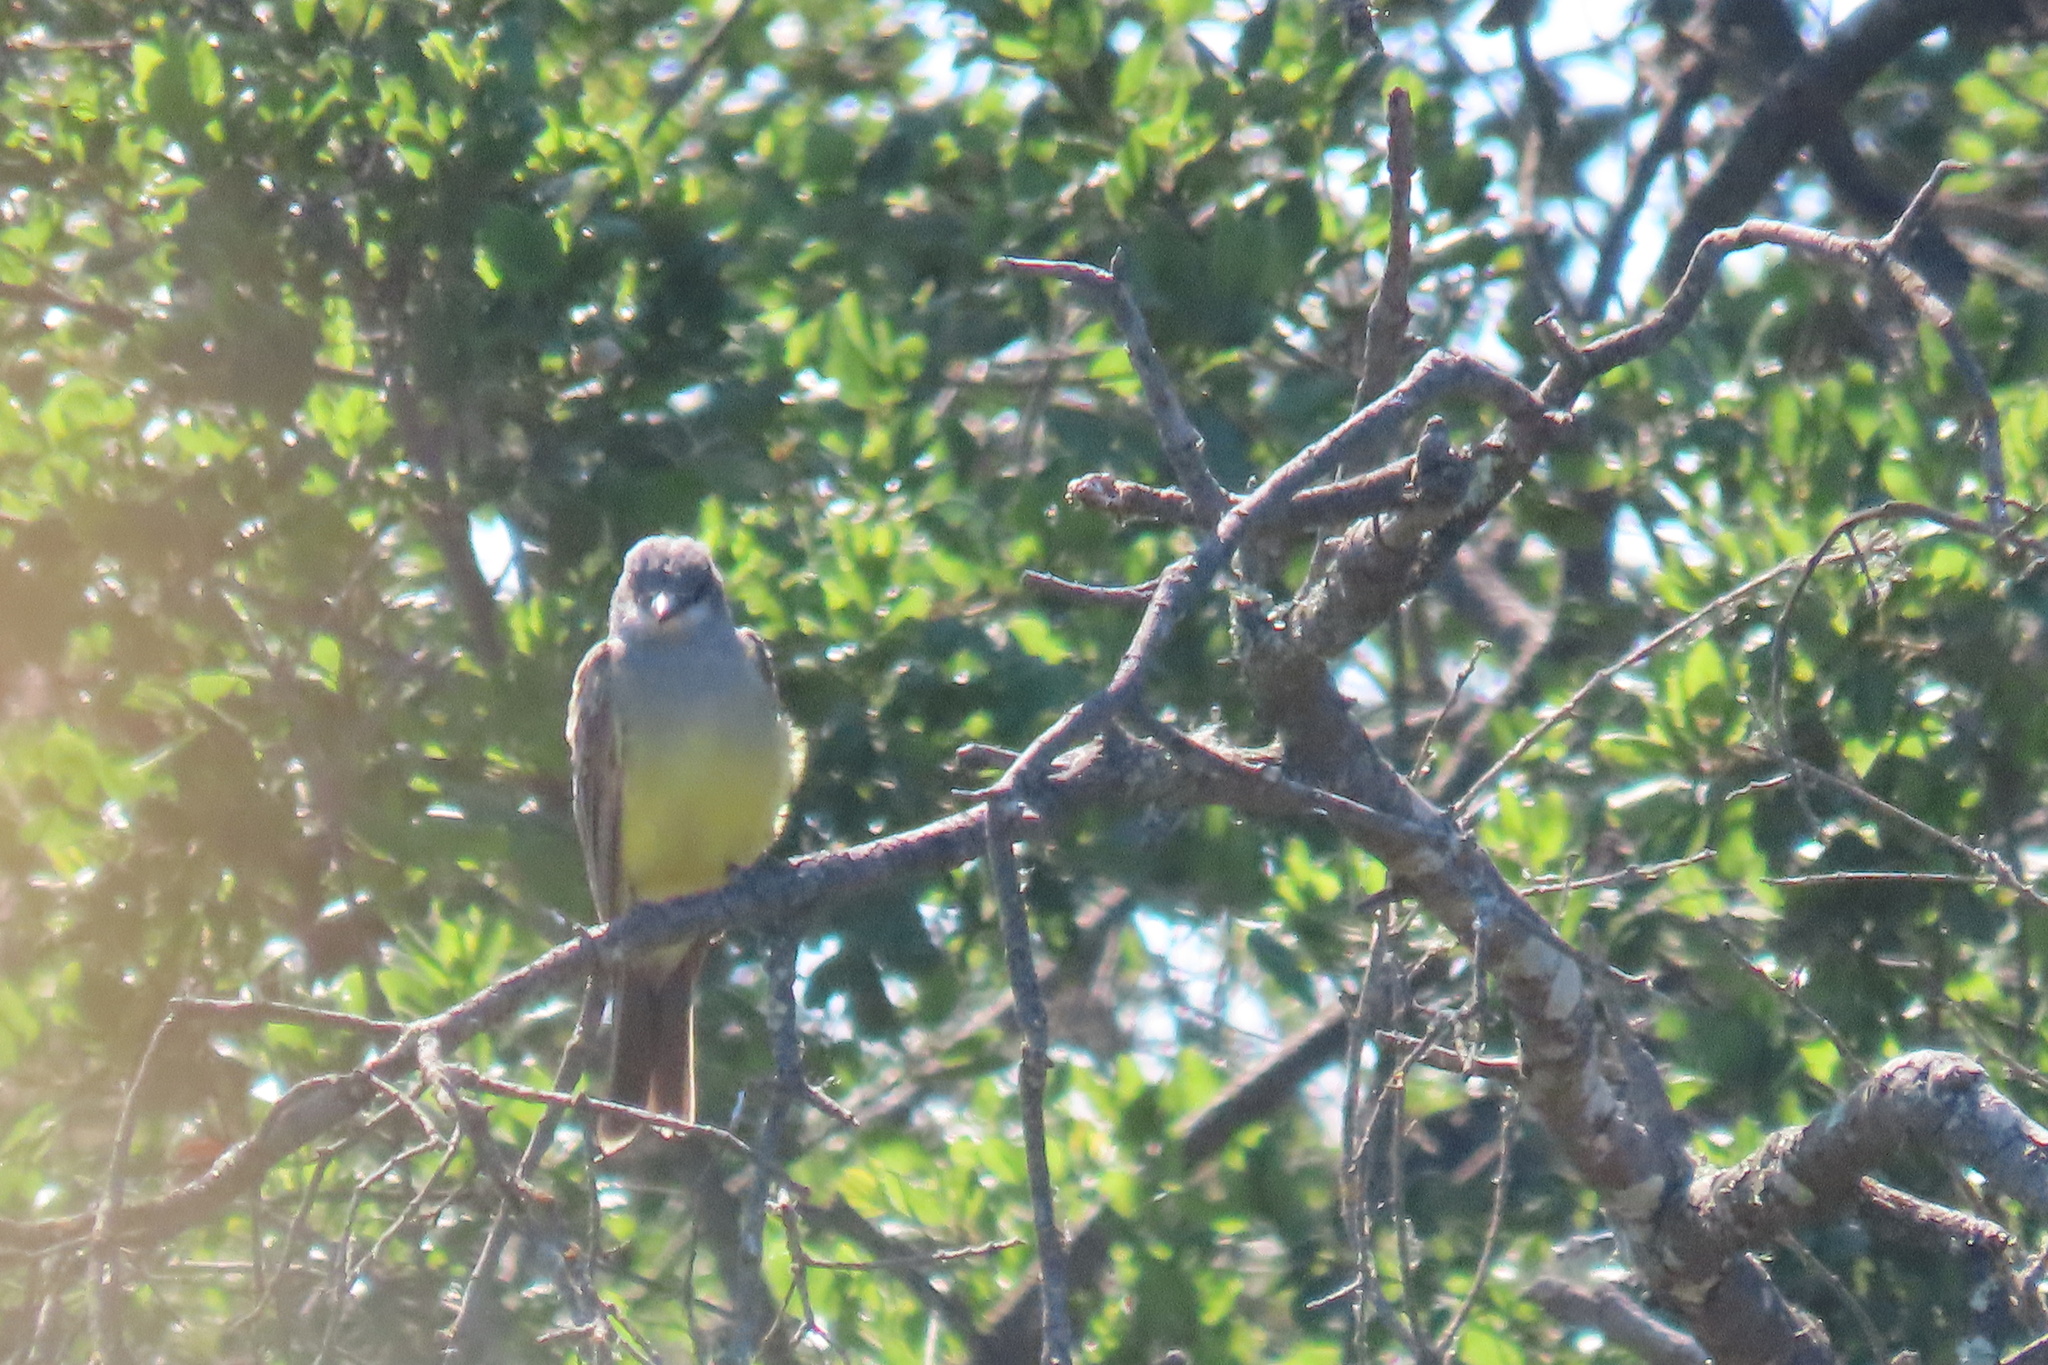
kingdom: Animalia
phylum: Chordata
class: Aves
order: Passeriformes
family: Tyrannidae
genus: Tyrannus
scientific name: Tyrannus vociferans
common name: Cassin's kingbird
